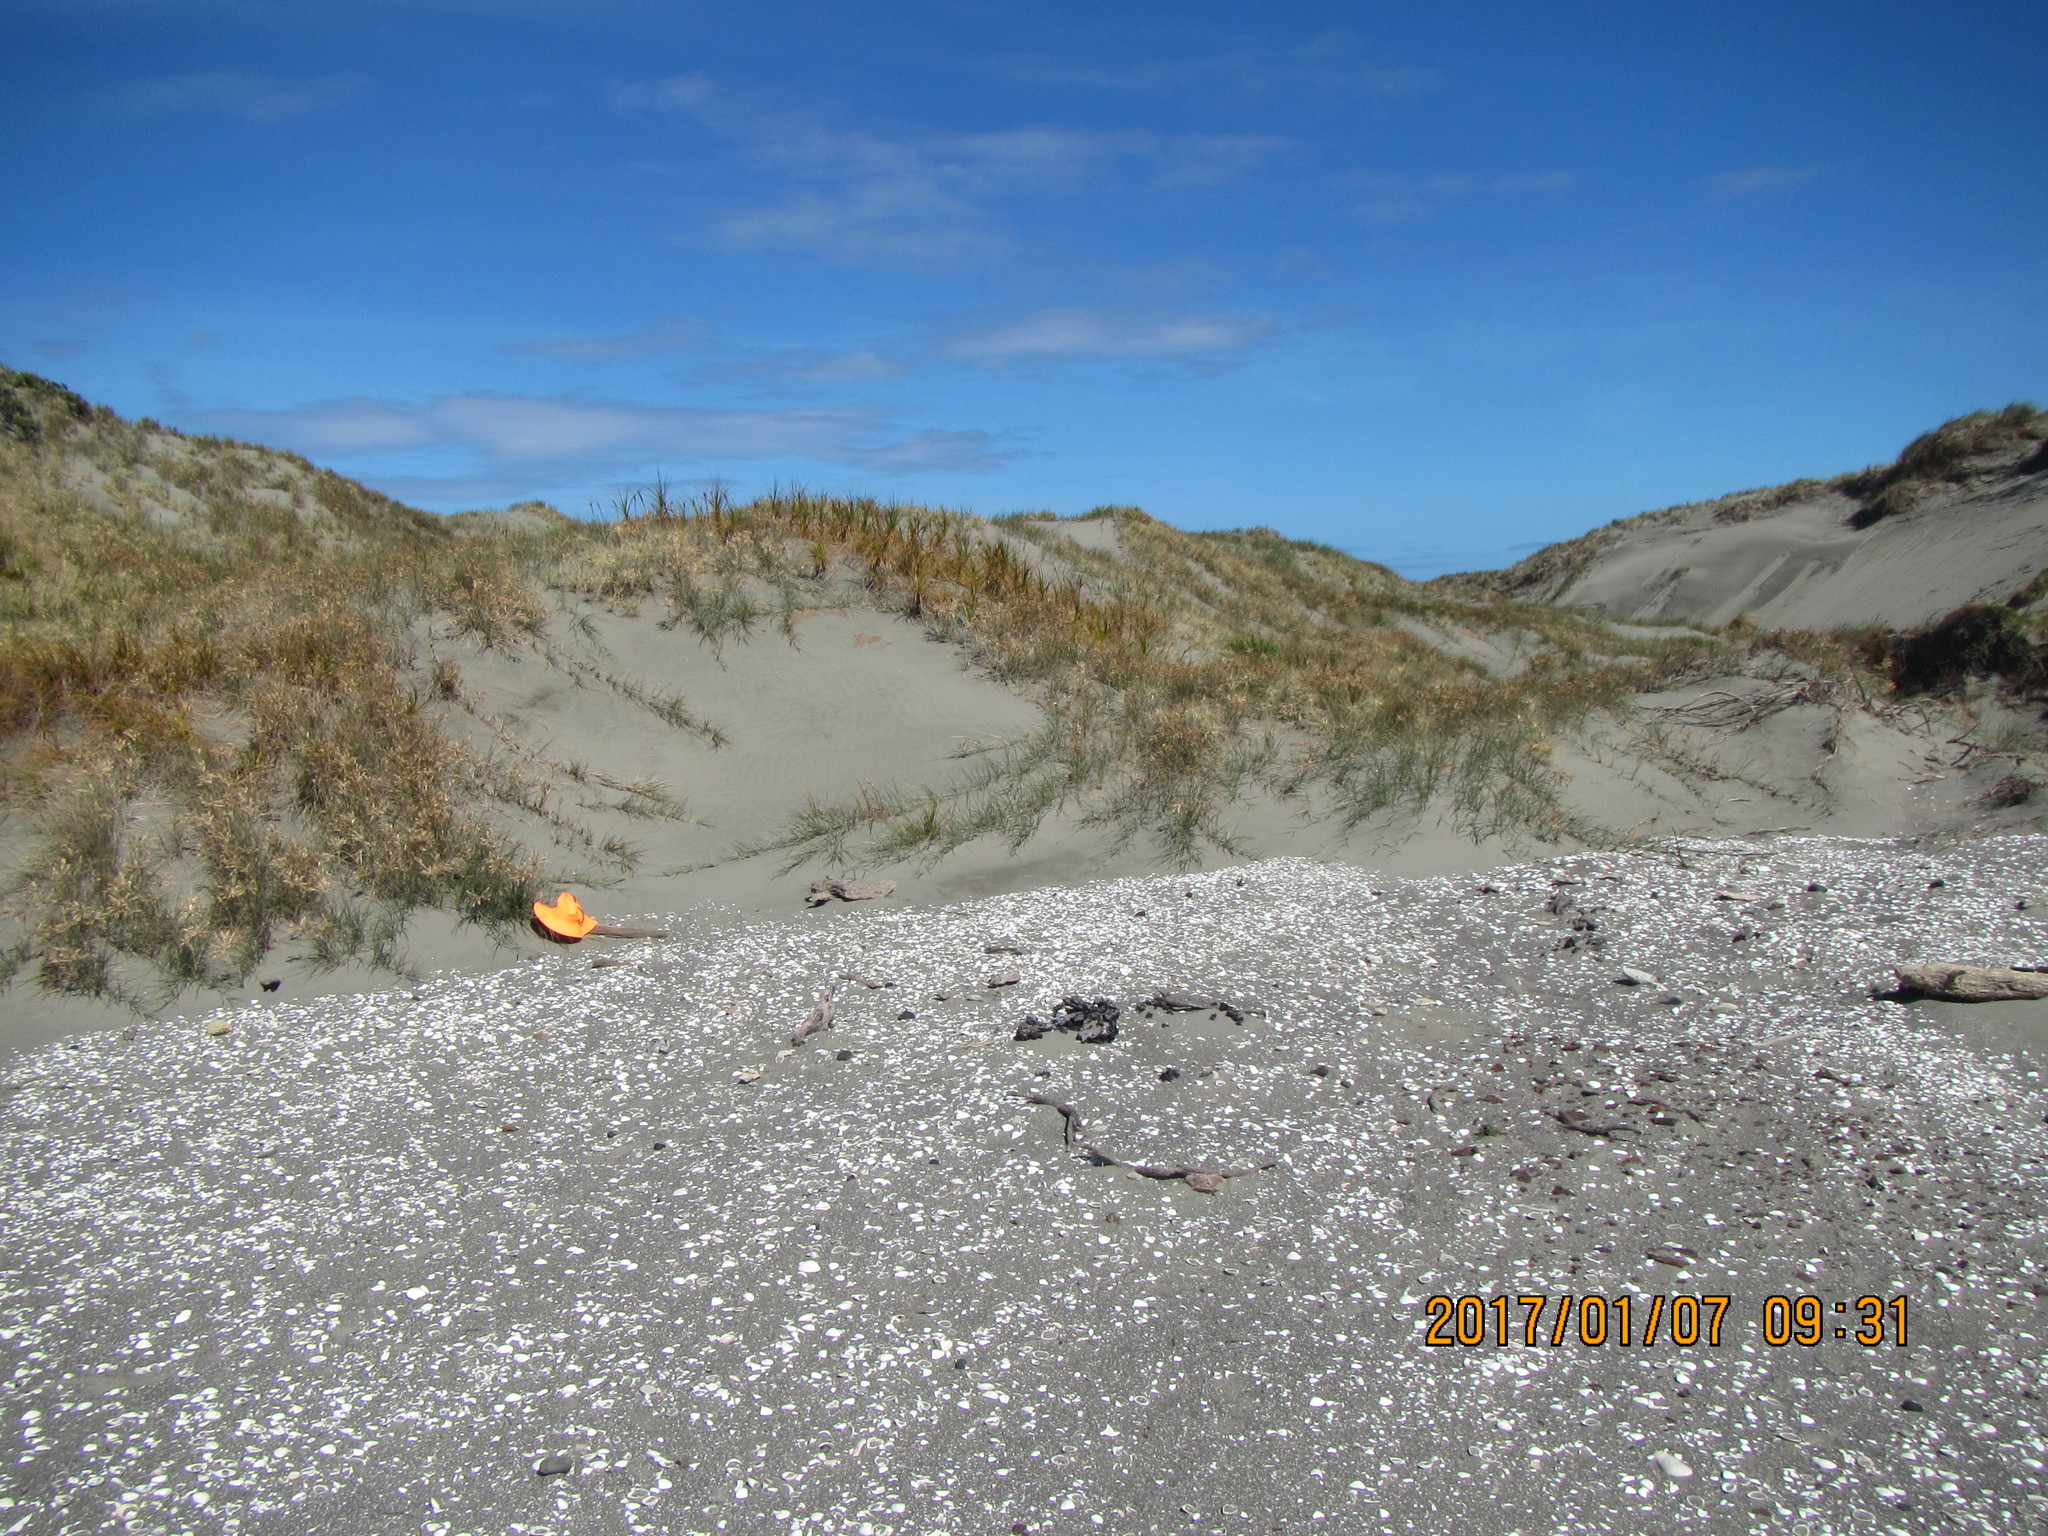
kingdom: Animalia
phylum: Arthropoda
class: Arachnida
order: Araneae
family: Theridiidae
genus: Latrodectus
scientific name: Latrodectus katipo
